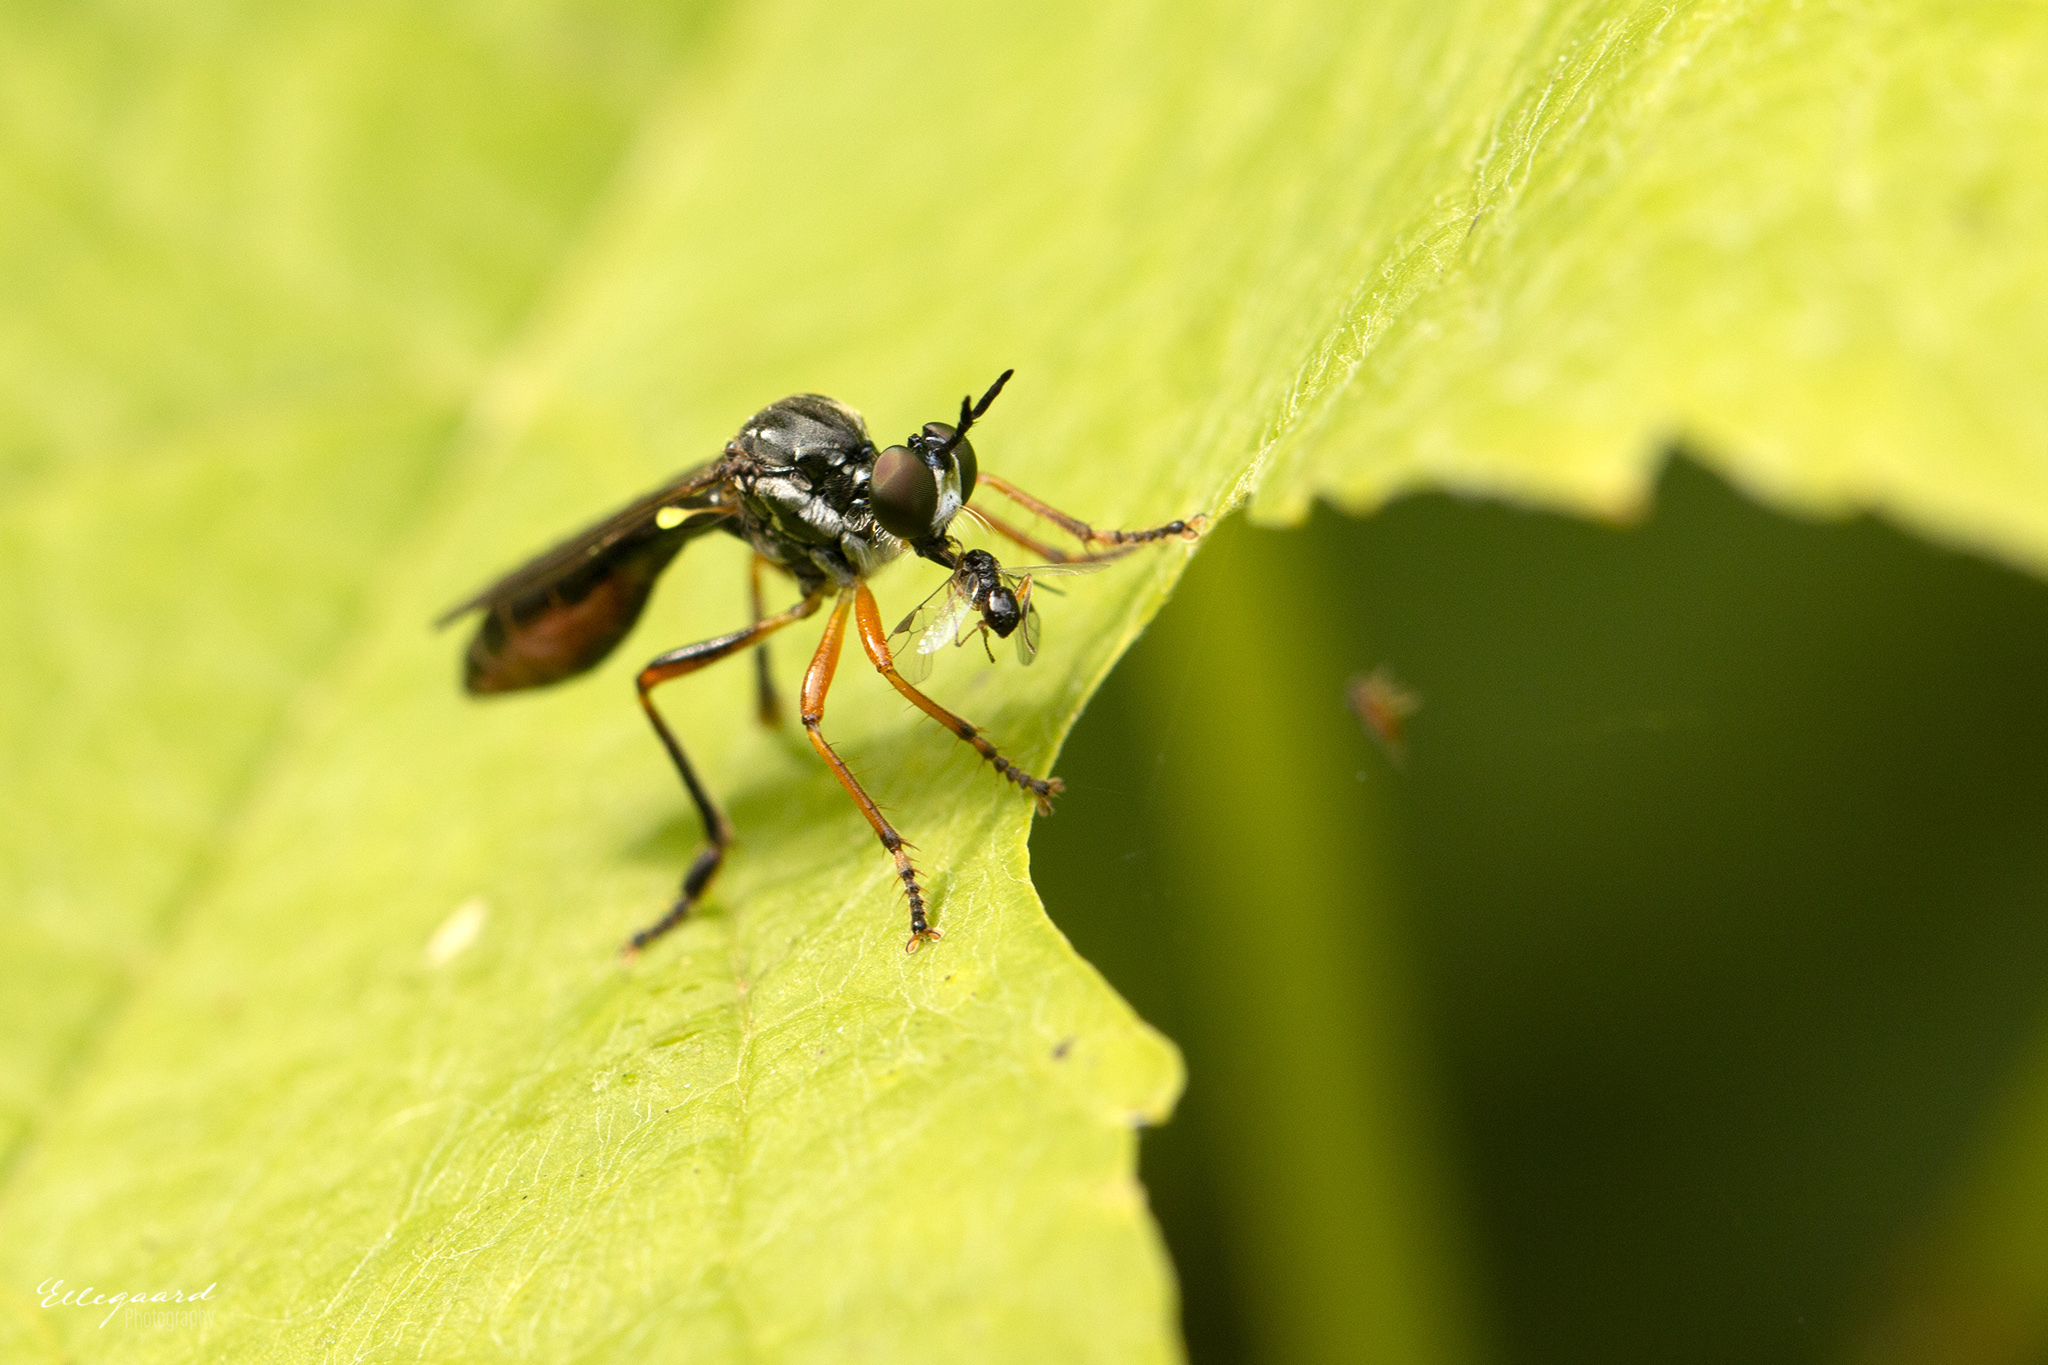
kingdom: Animalia
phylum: Arthropoda
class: Insecta
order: Diptera
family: Asilidae
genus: Dioctria
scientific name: Dioctria hyalipennis
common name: Stripe-legged robberfly
